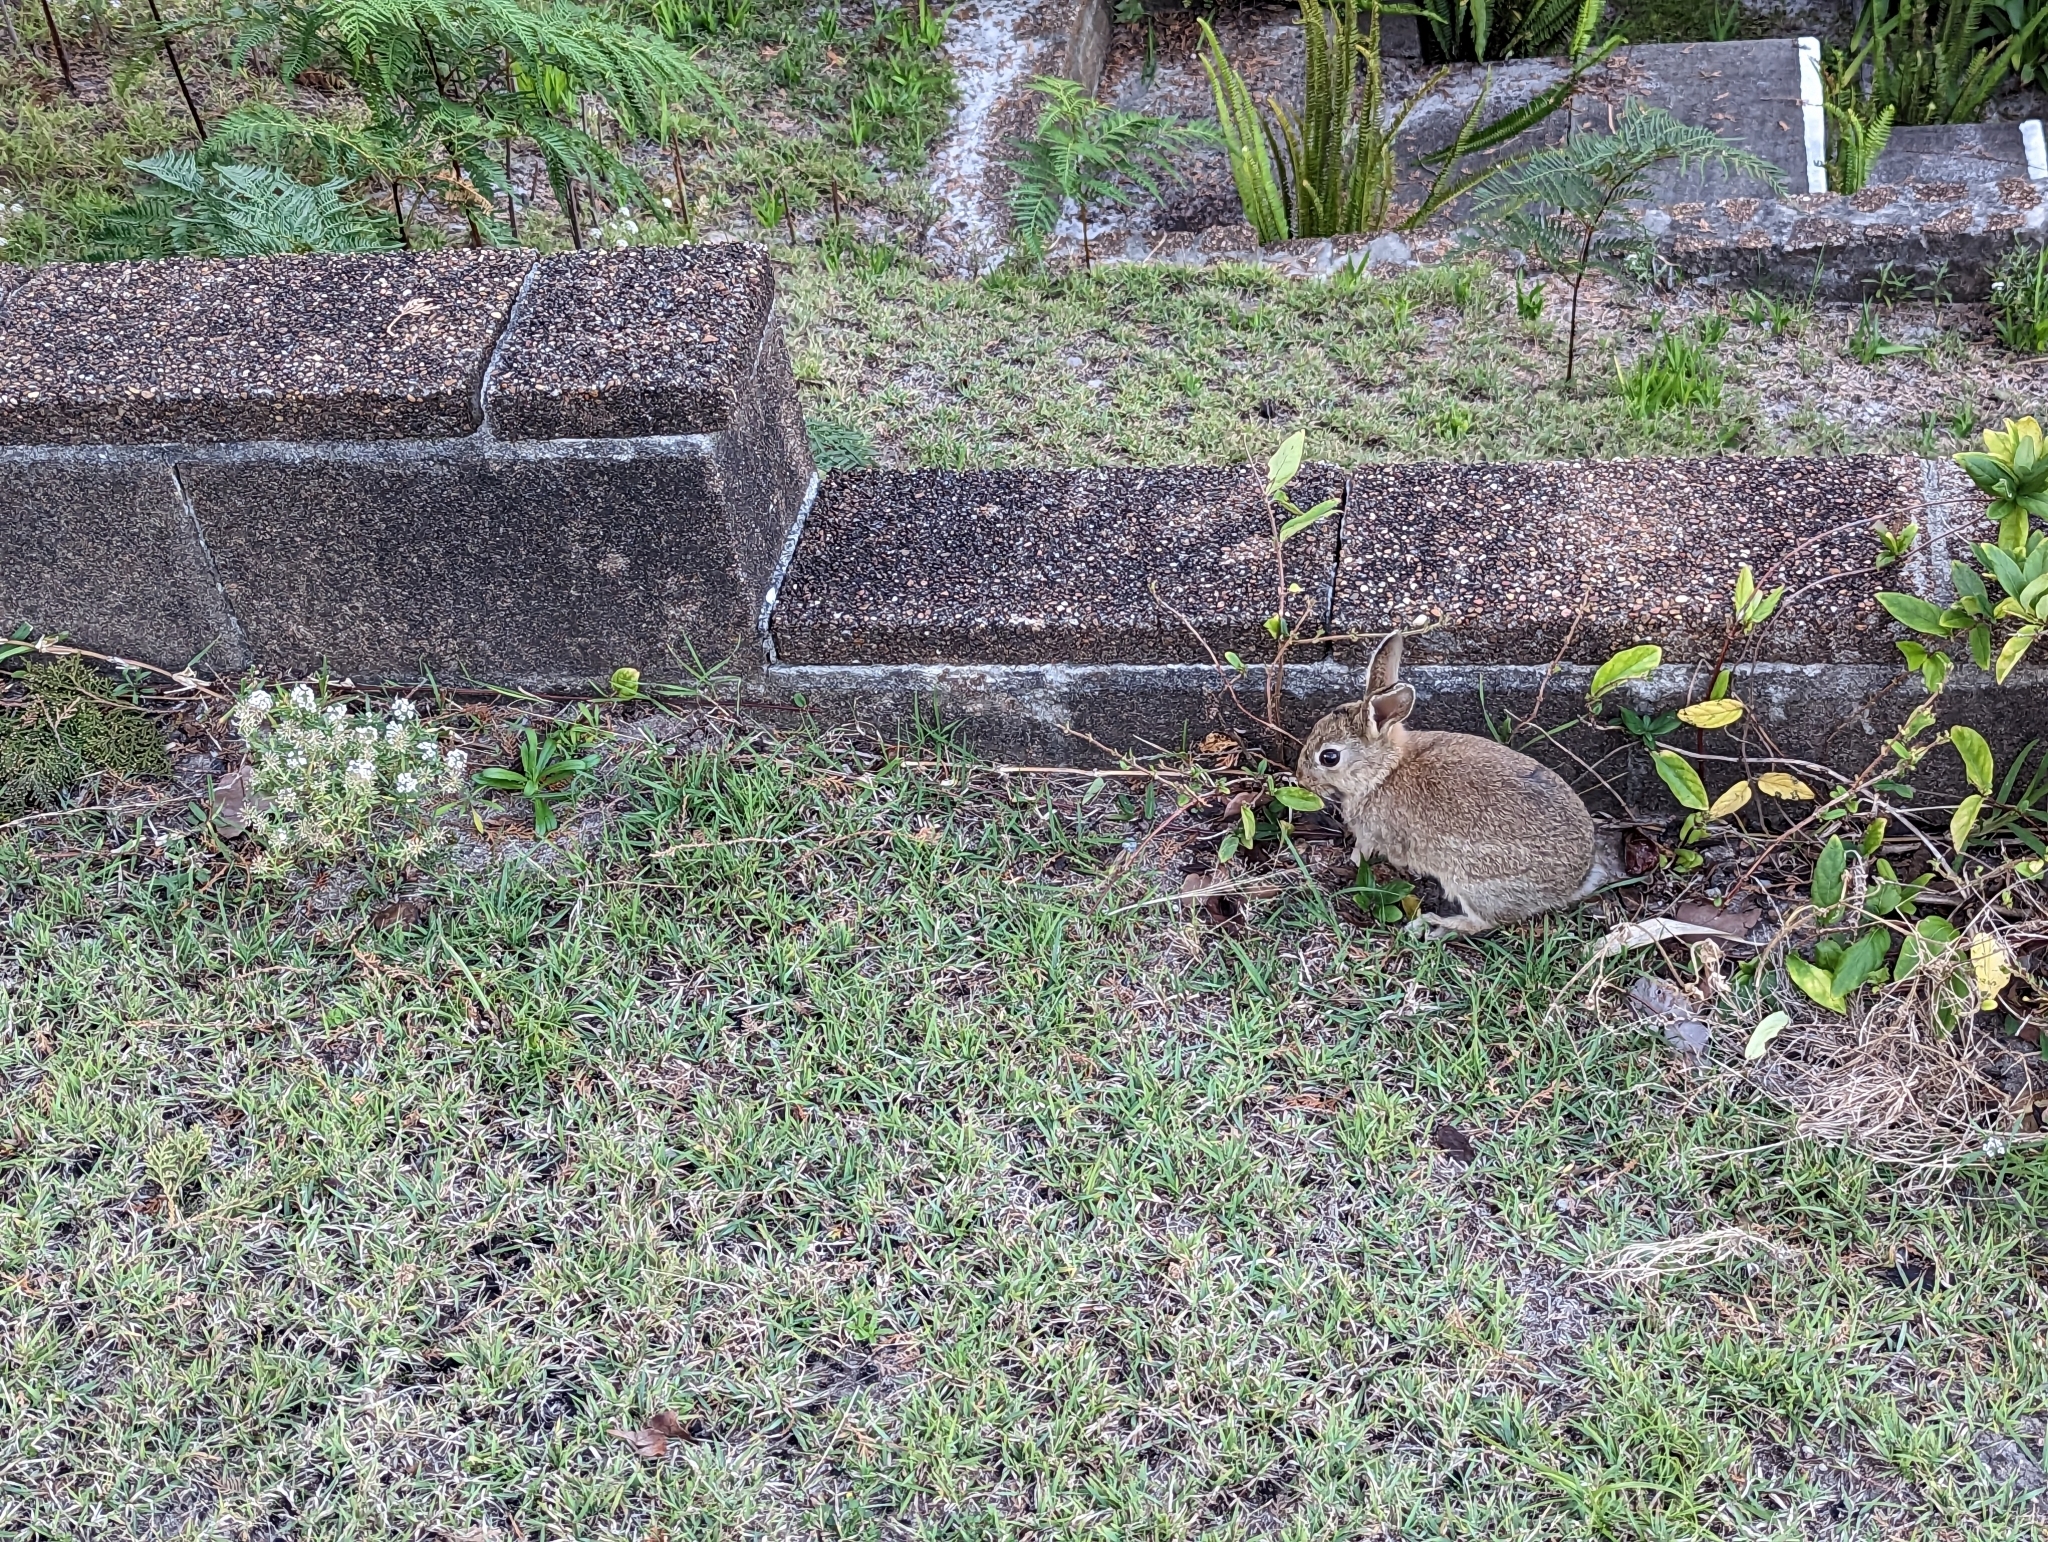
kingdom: Animalia
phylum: Chordata
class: Mammalia
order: Lagomorpha
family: Leporidae
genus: Oryctolagus
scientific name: Oryctolagus cuniculus
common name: European rabbit
